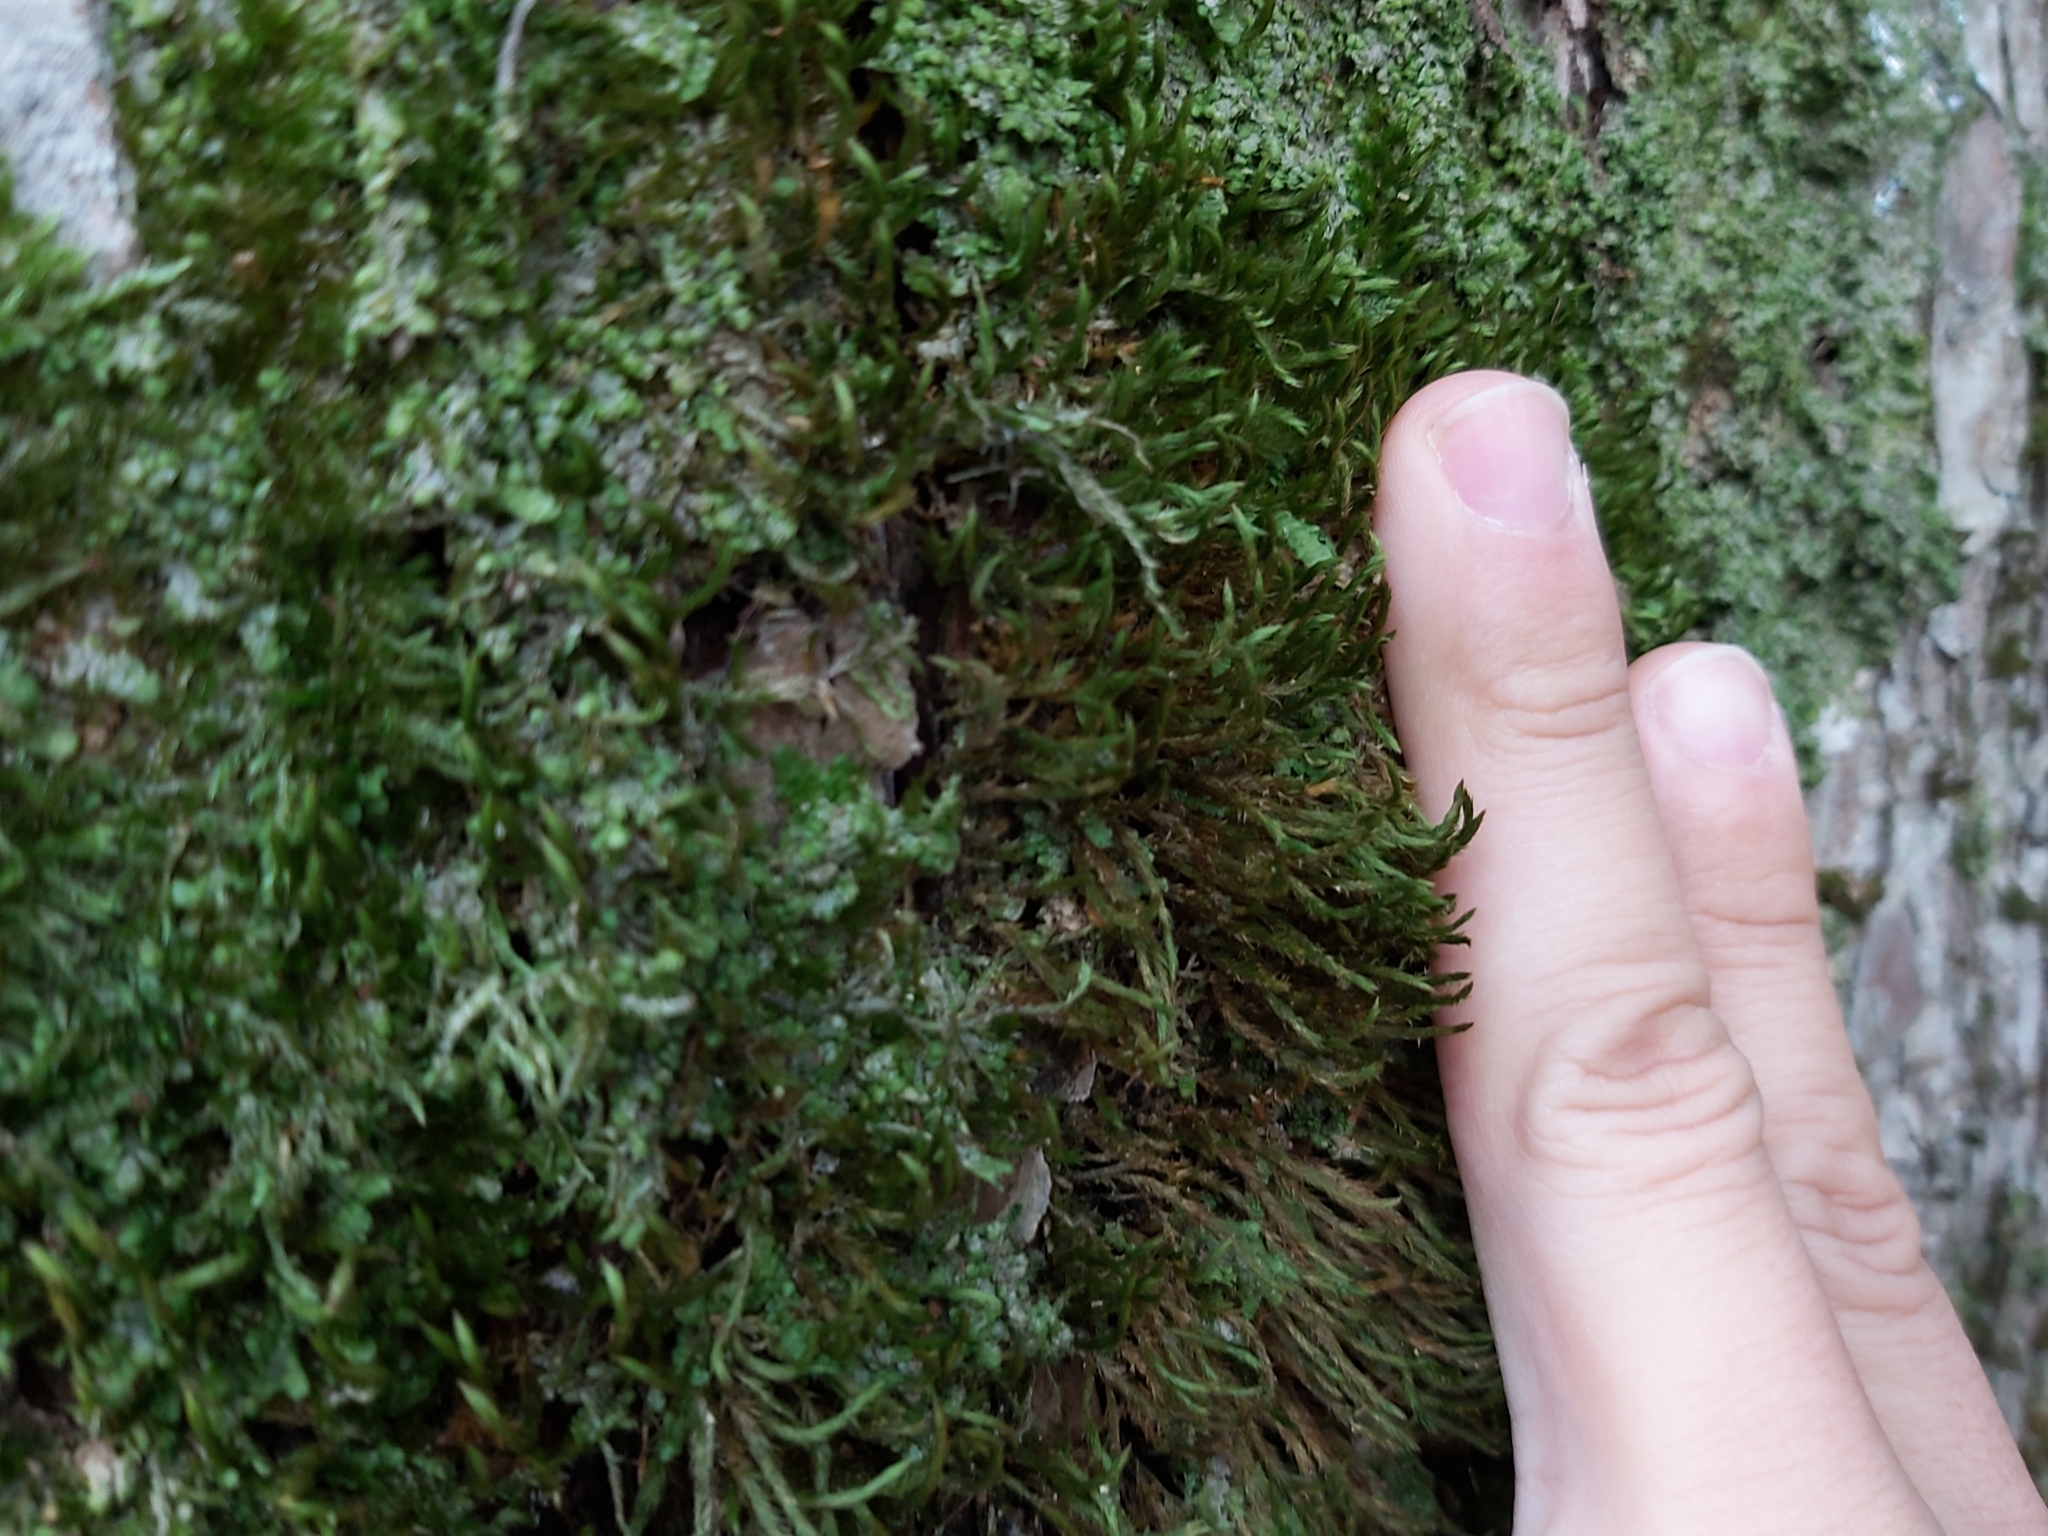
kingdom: Plantae
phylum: Bryophyta
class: Bryopsida
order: Hypnales
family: Leucodontaceae
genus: Leucodon
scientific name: Leucodon sciuroides
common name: Squirrel-tail moss
